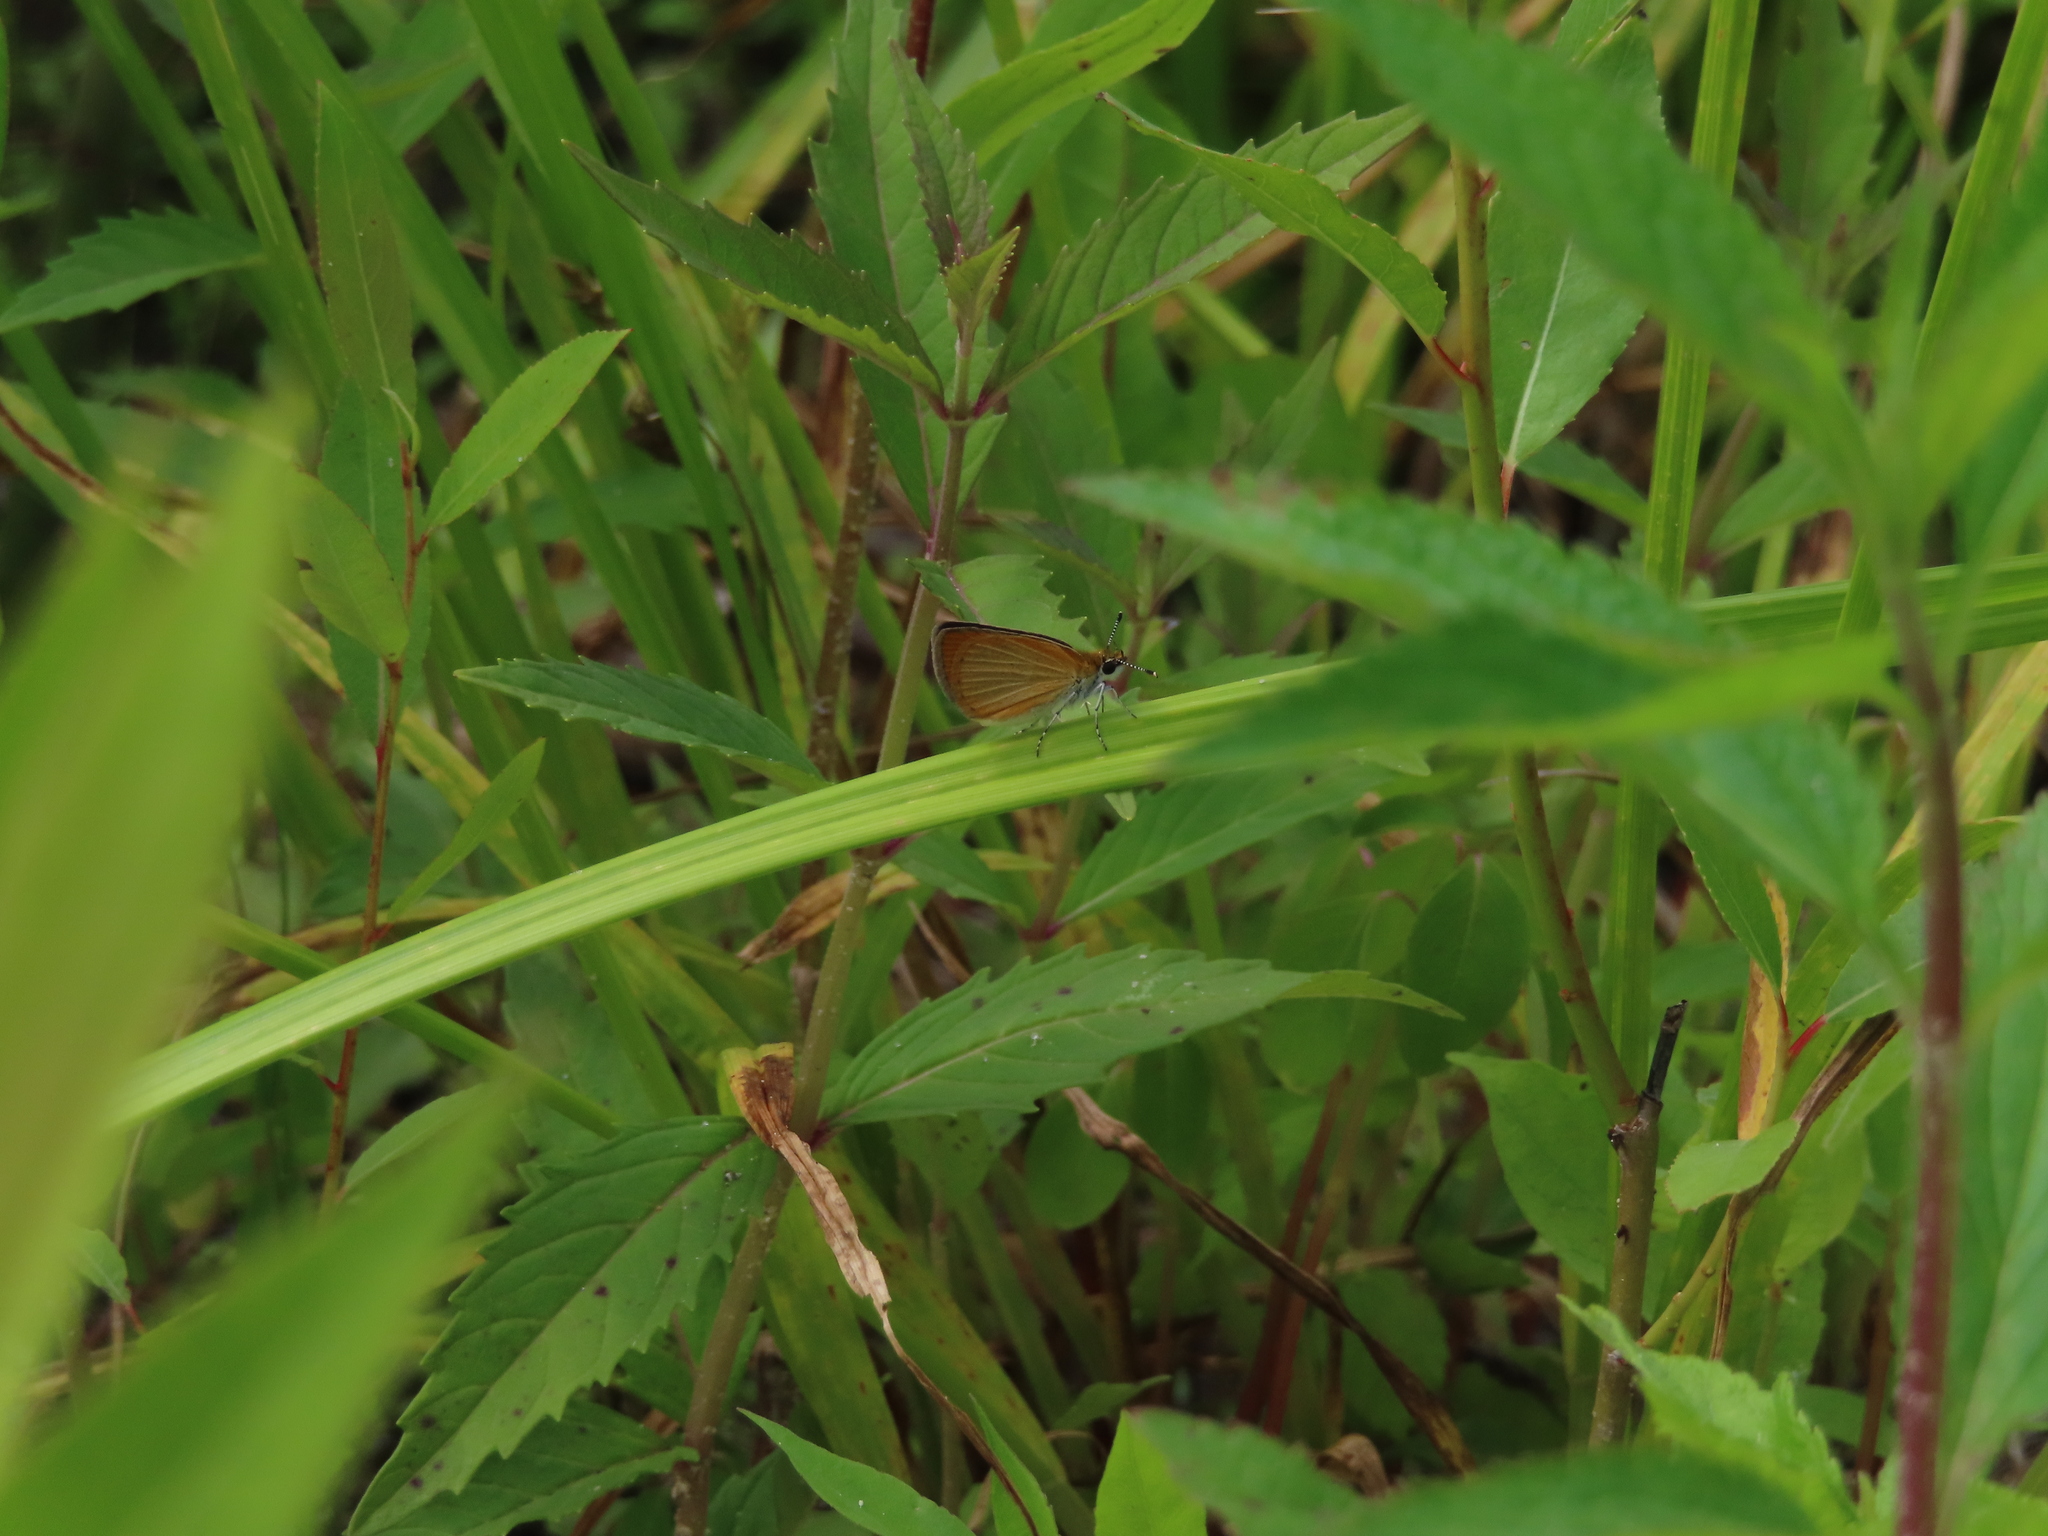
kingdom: Animalia
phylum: Arthropoda
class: Insecta
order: Lepidoptera
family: Hesperiidae
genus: Ancyloxypha
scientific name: Ancyloxypha numitor
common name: Least skipper
